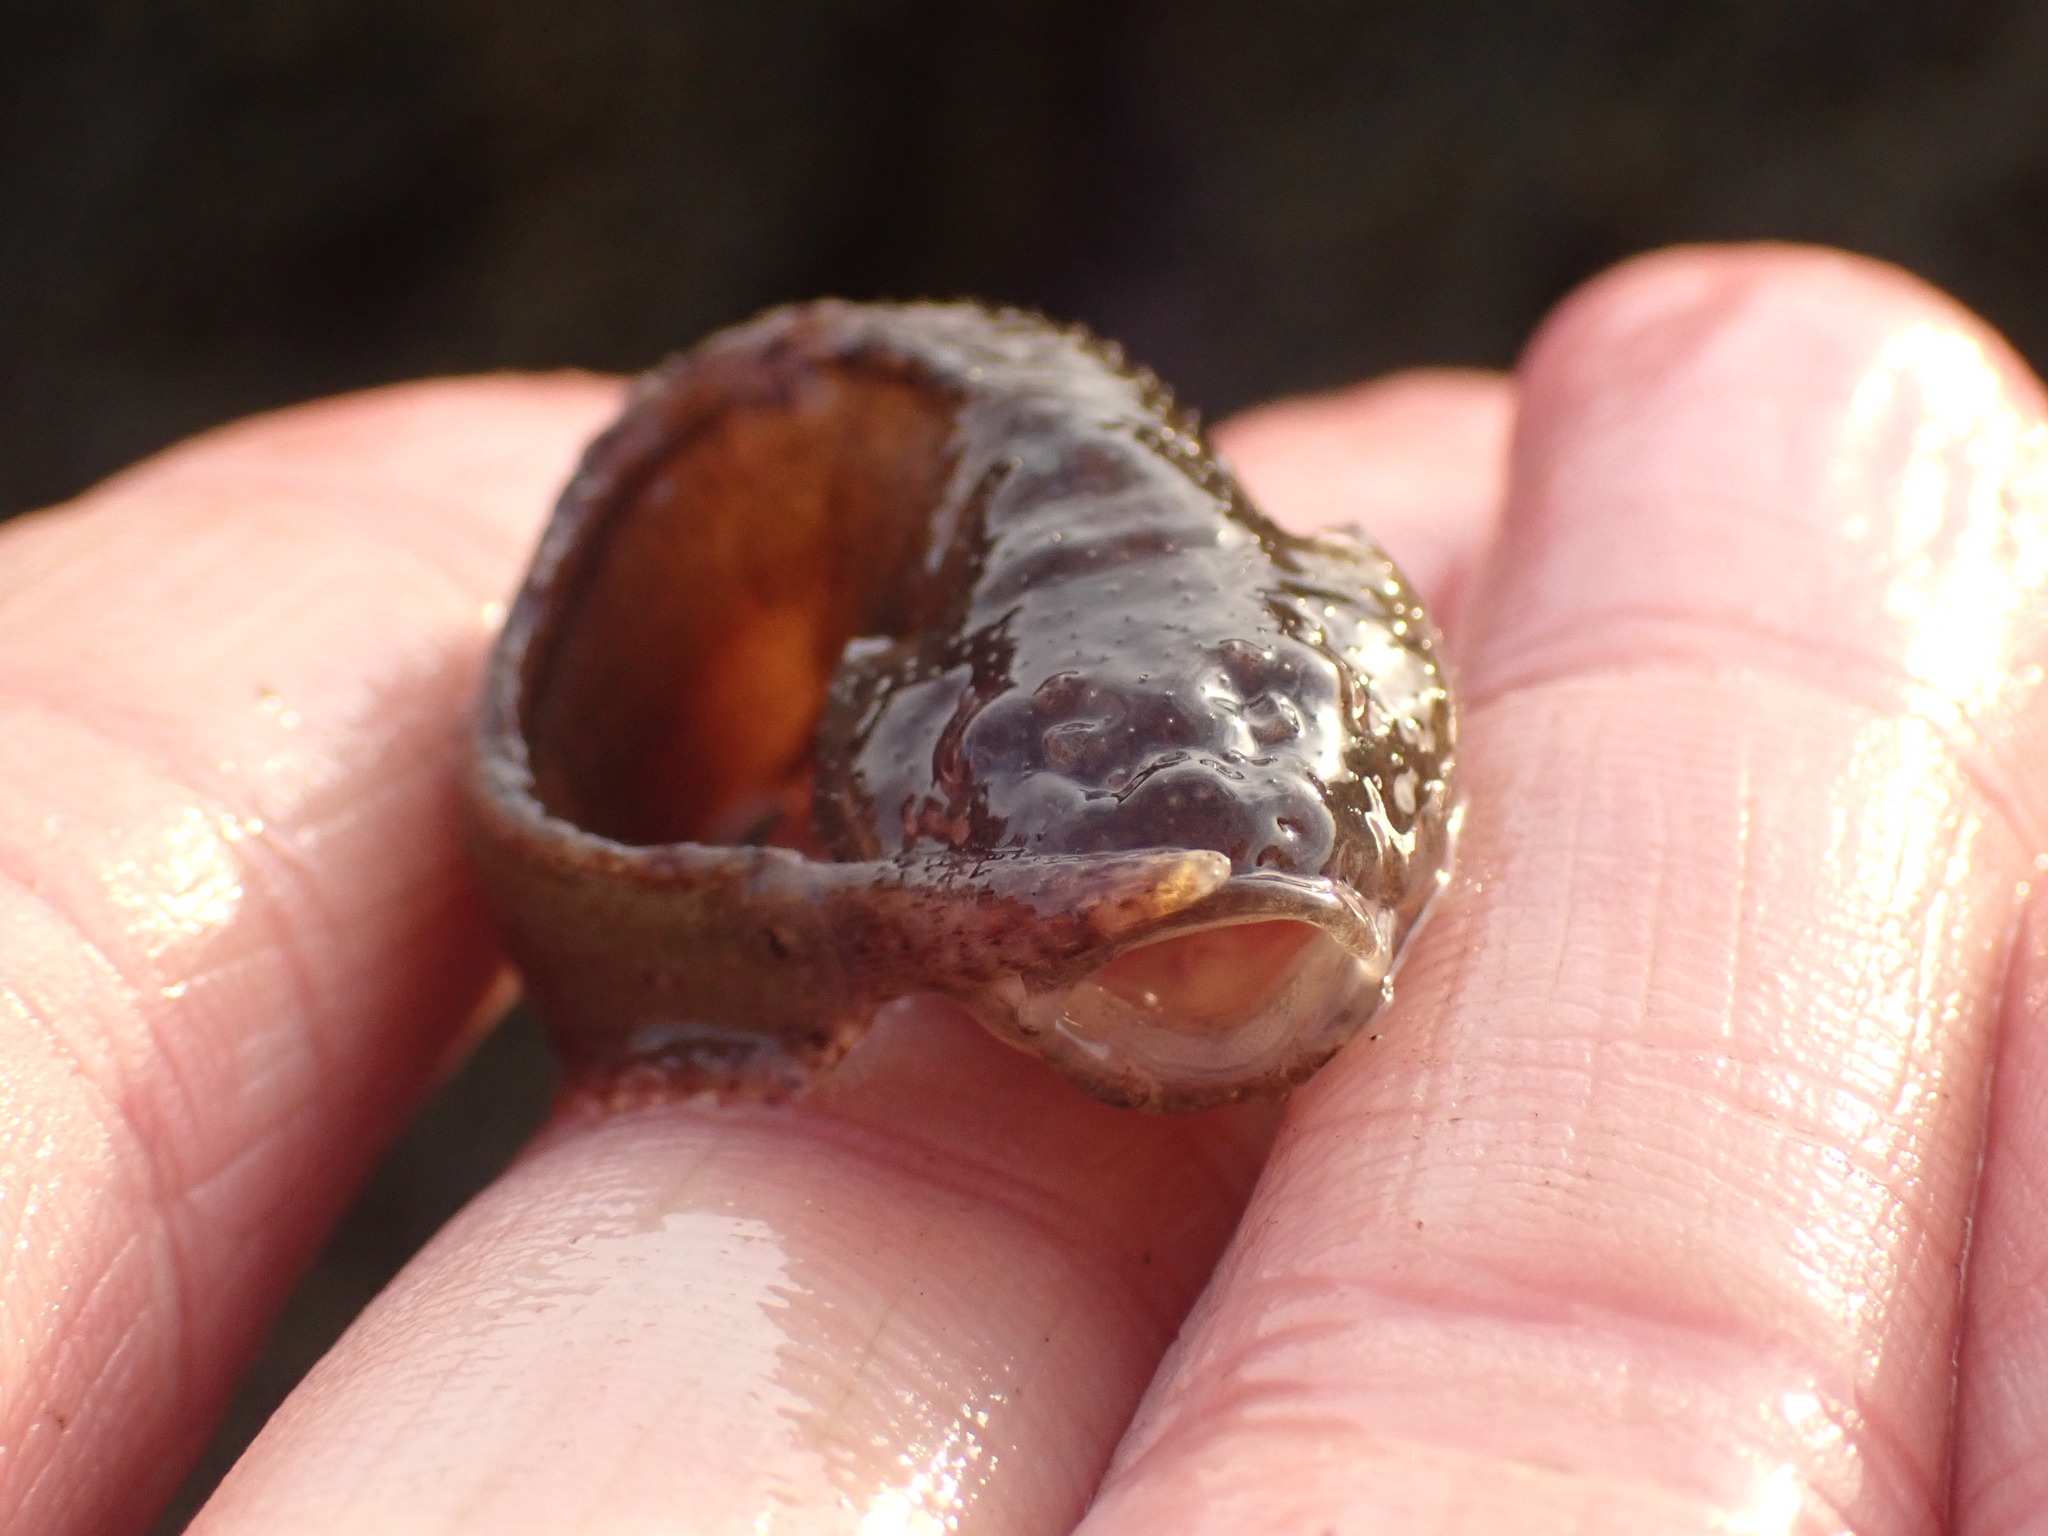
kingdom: Animalia
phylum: Chordata
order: Scorpaeniformes
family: Liparidae
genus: Liparis
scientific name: Liparis atlanticus
